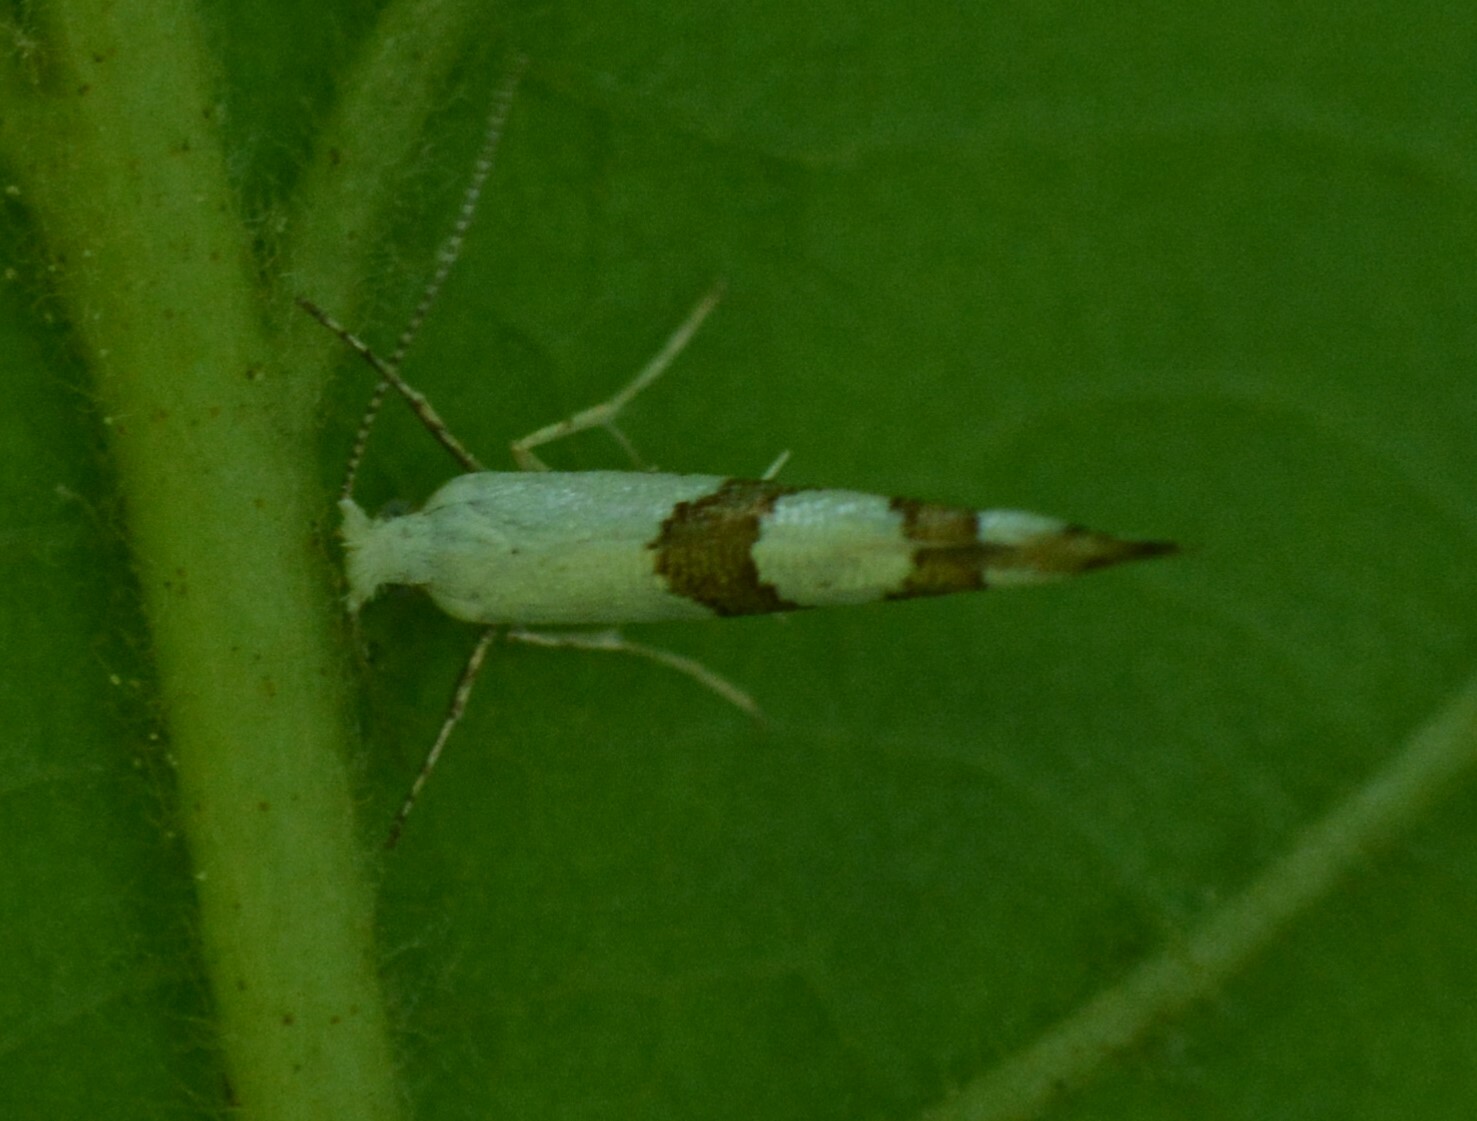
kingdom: Animalia
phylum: Arthropoda
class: Insecta
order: Lepidoptera
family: Argyresthiidae
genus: Argyresthia
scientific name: Argyresthia oreasella
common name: Cherry shoot borer moth
